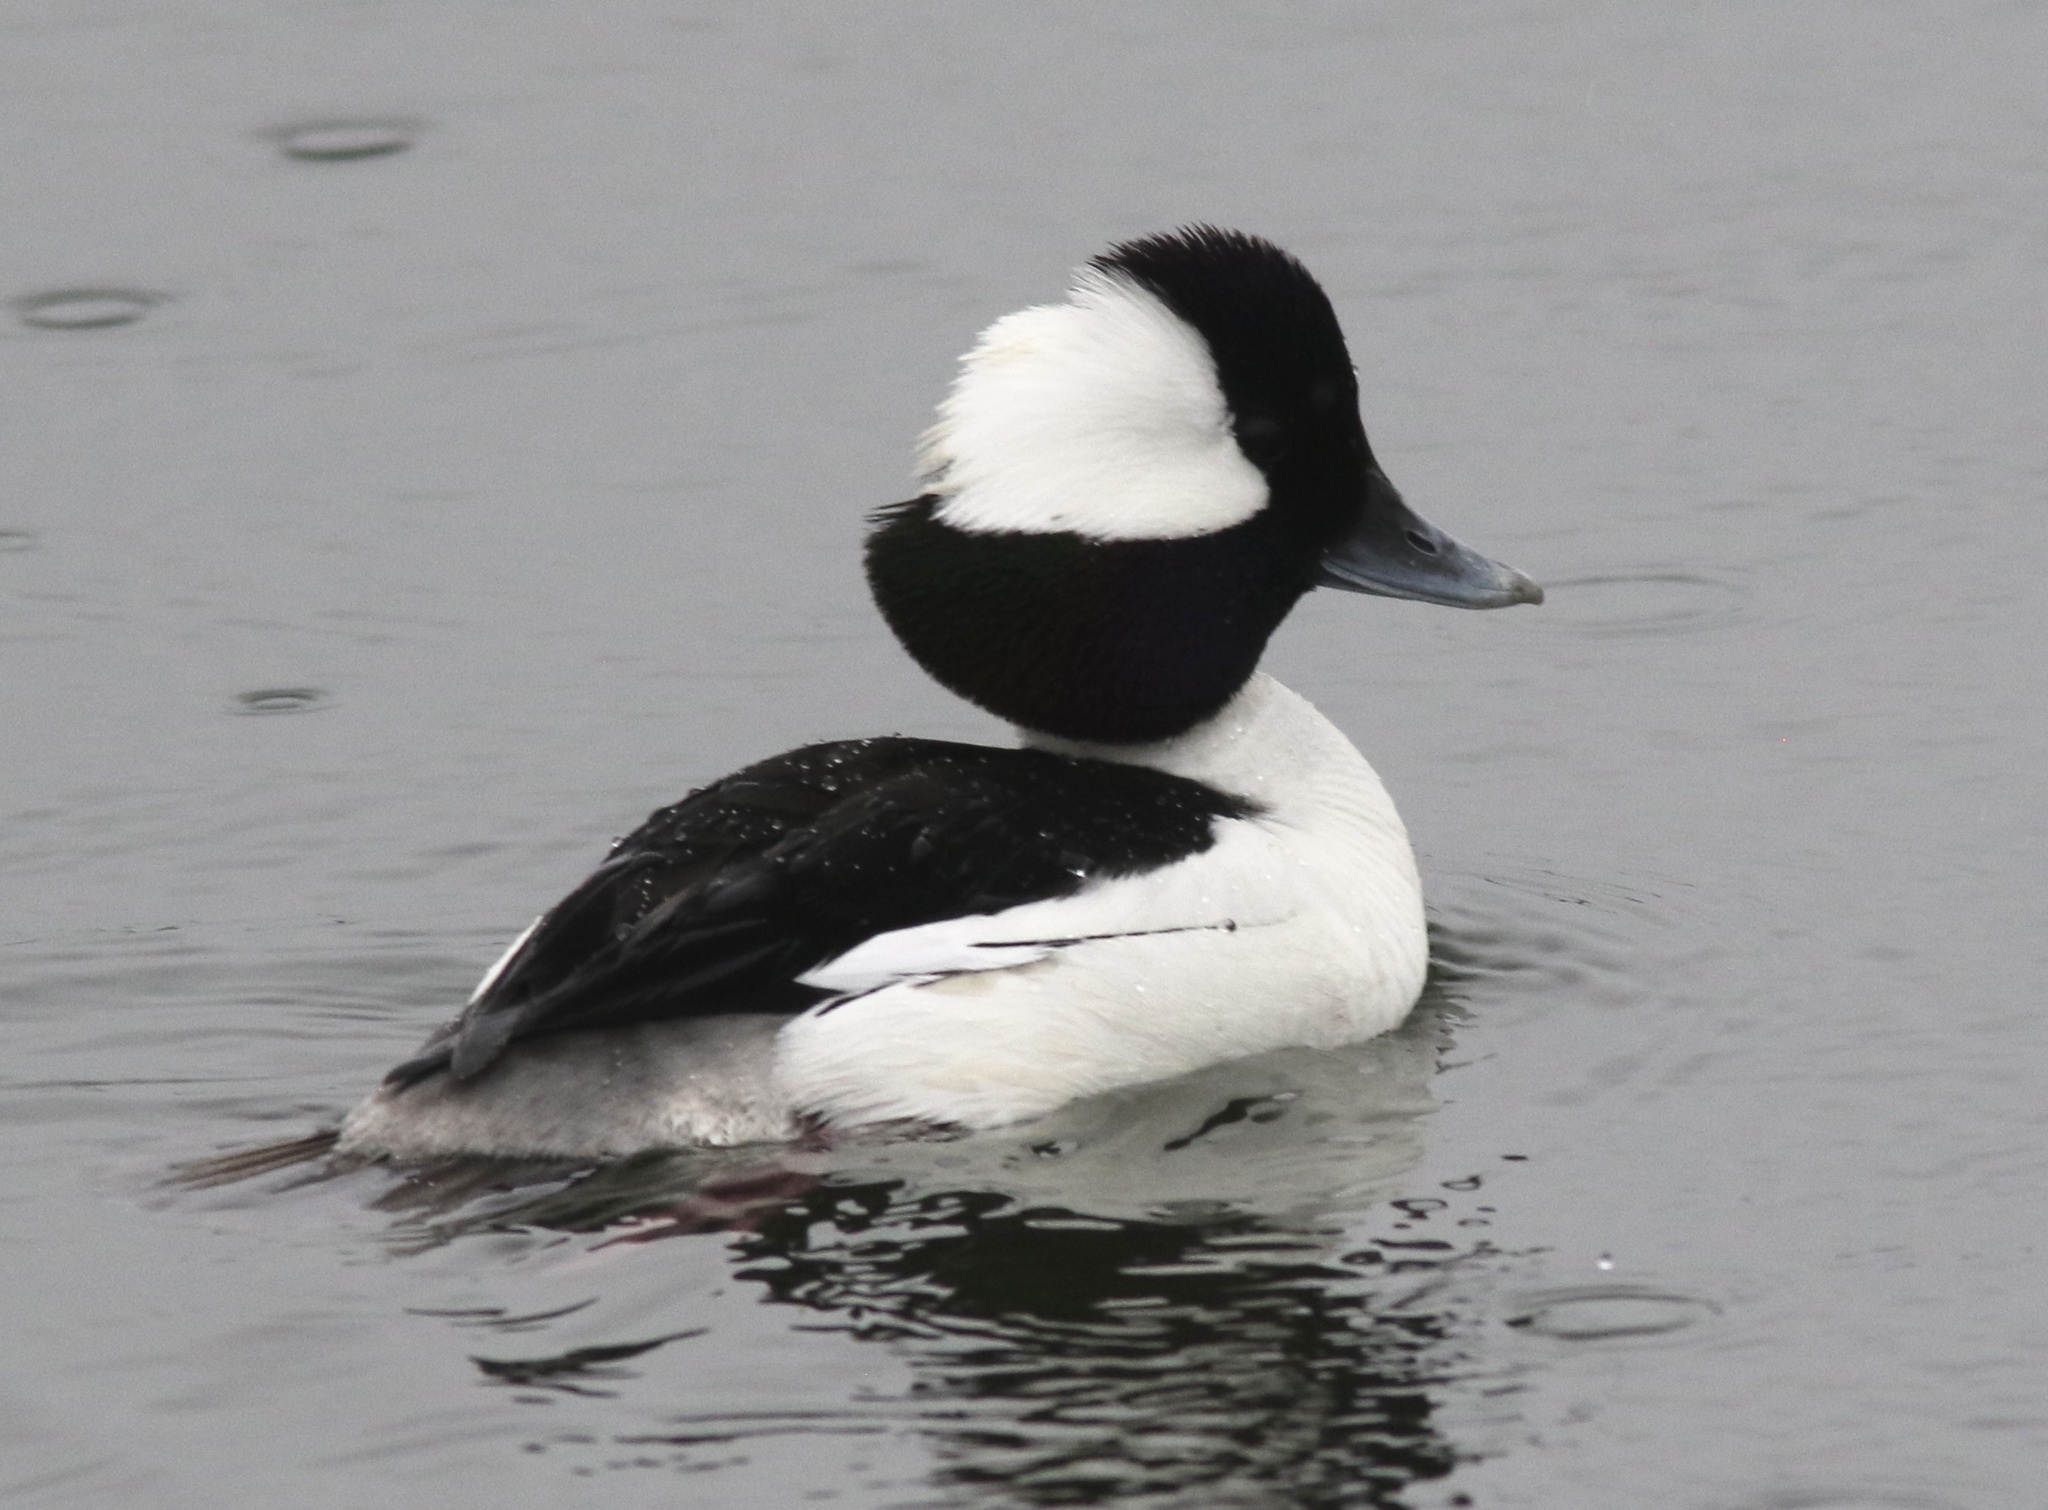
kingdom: Animalia
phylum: Chordata
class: Aves
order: Anseriformes
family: Anatidae
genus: Bucephala
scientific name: Bucephala albeola
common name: Bufflehead
